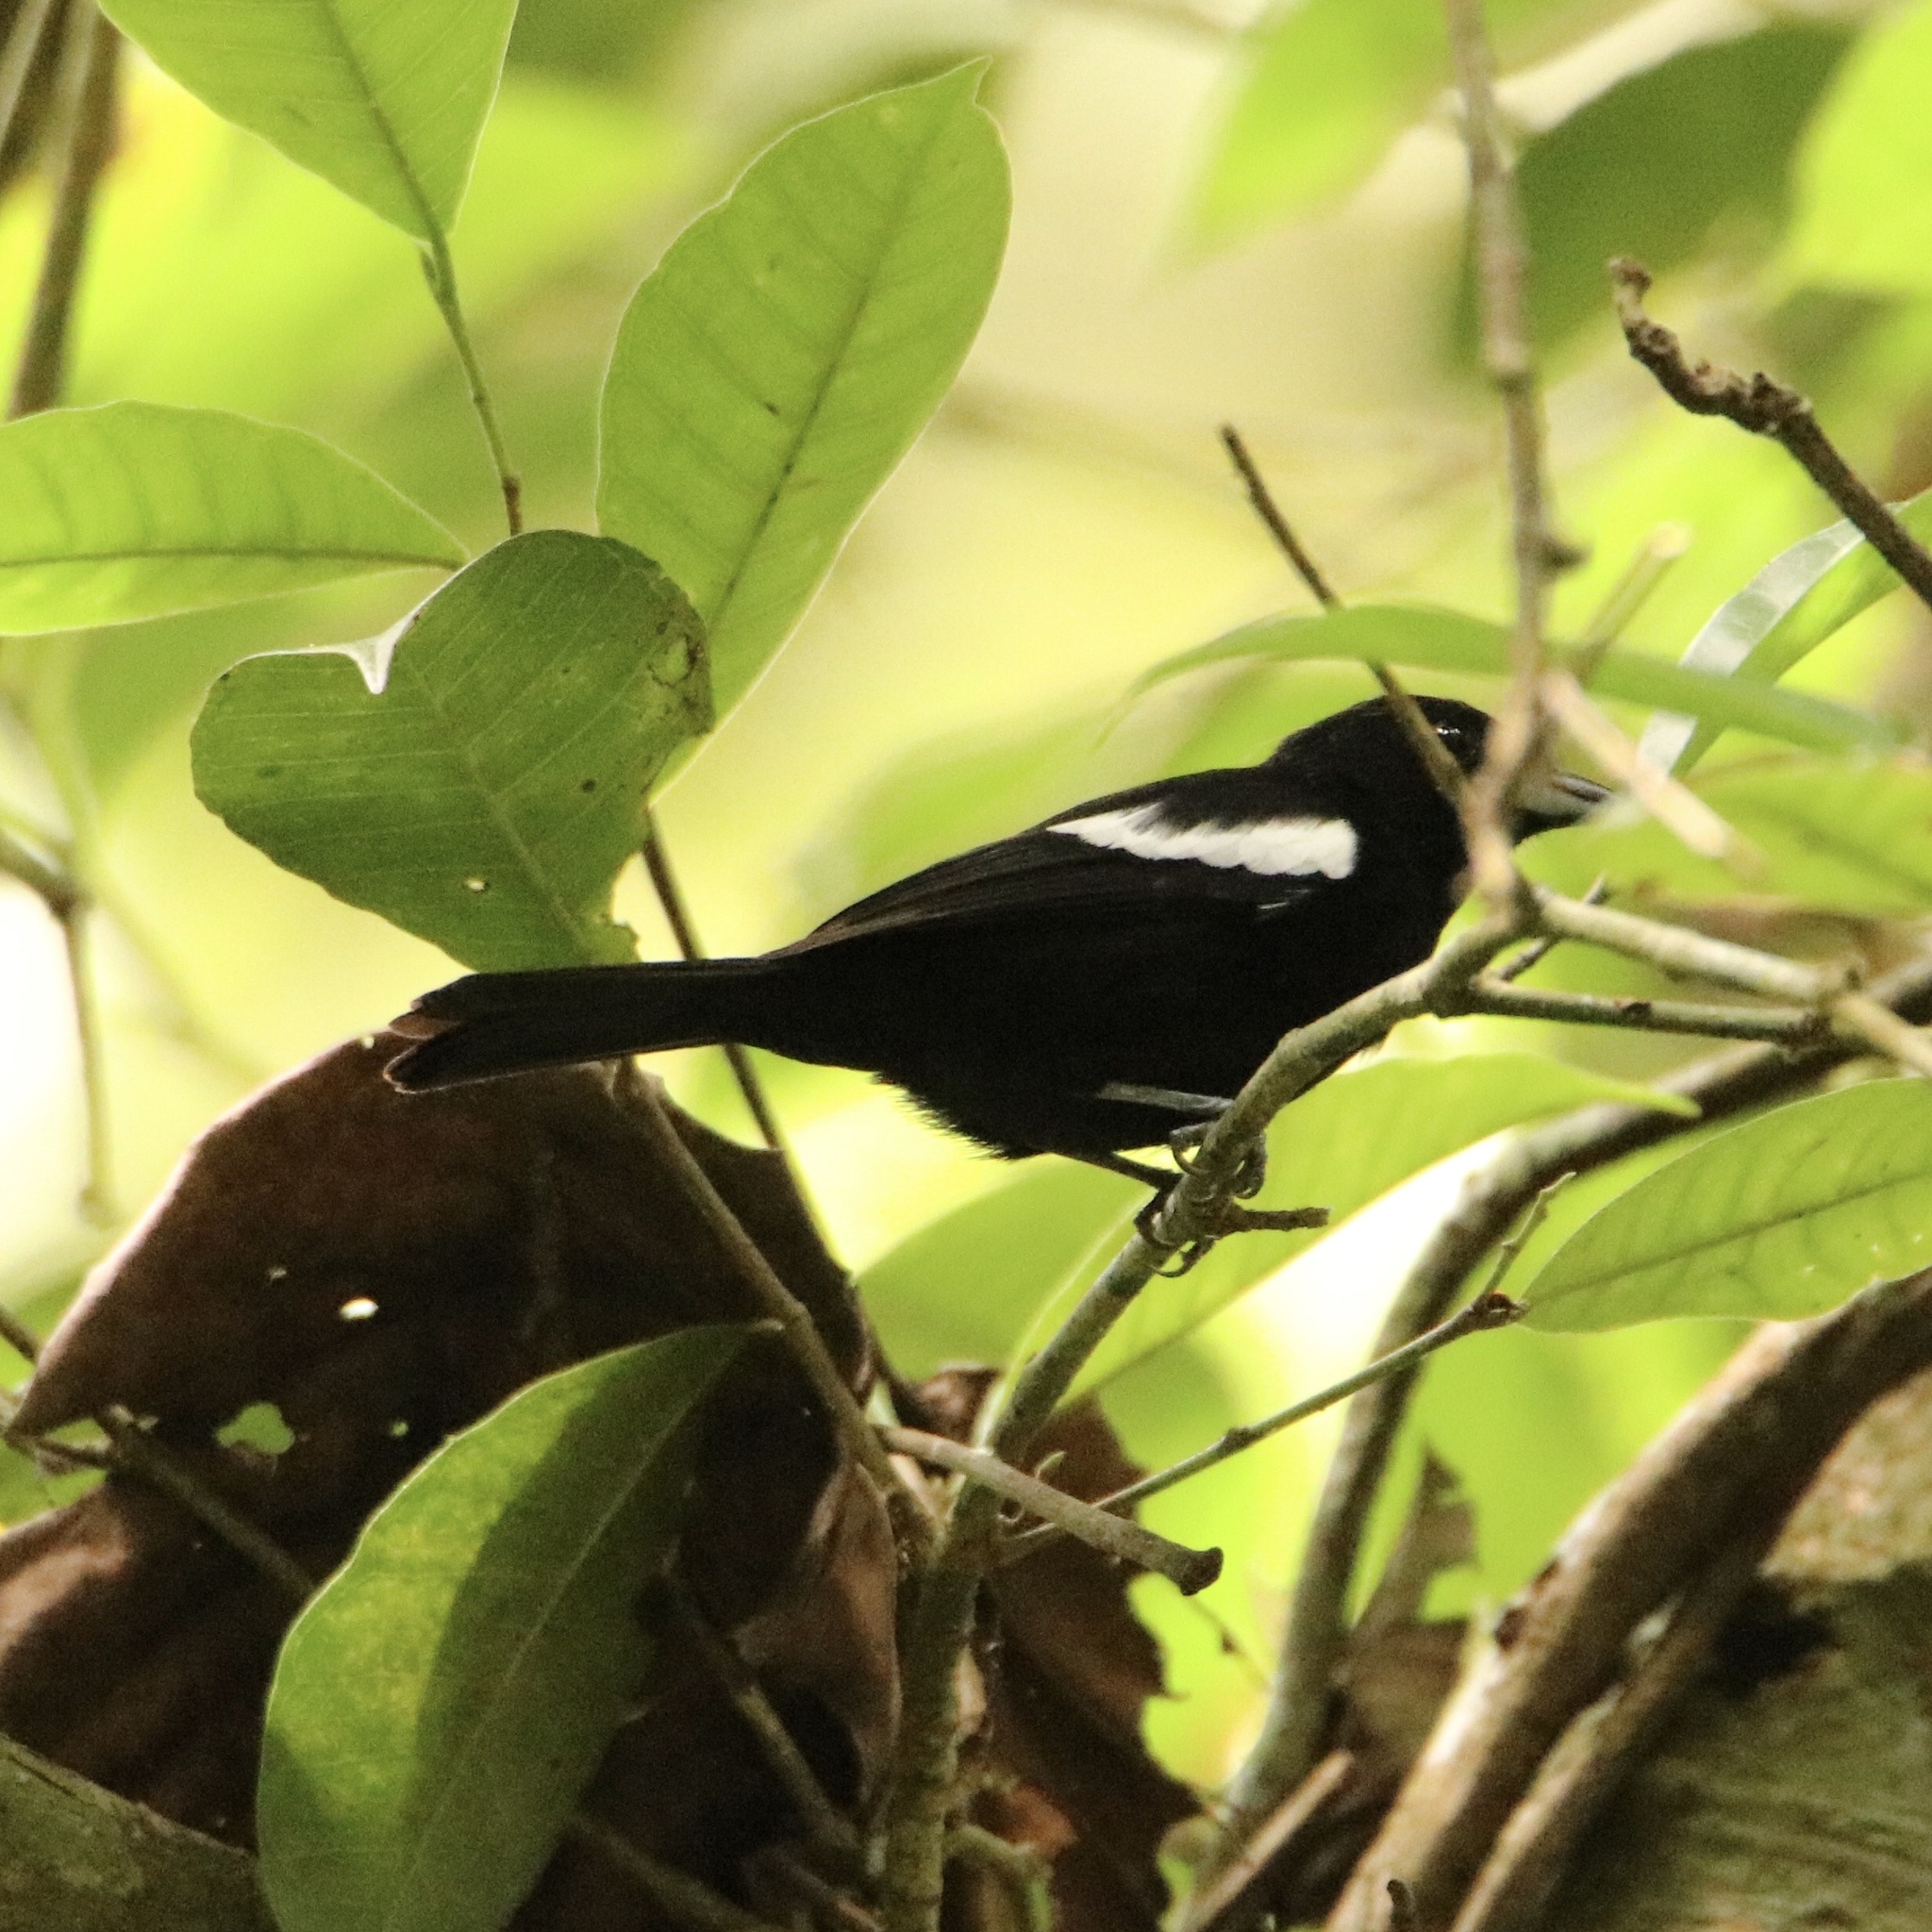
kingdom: Animalia
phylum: Chordata
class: Aves
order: Passeriformes
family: Thraupidae
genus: Loriotus
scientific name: Loriotus luctuosus
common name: White-shouldered tanager
